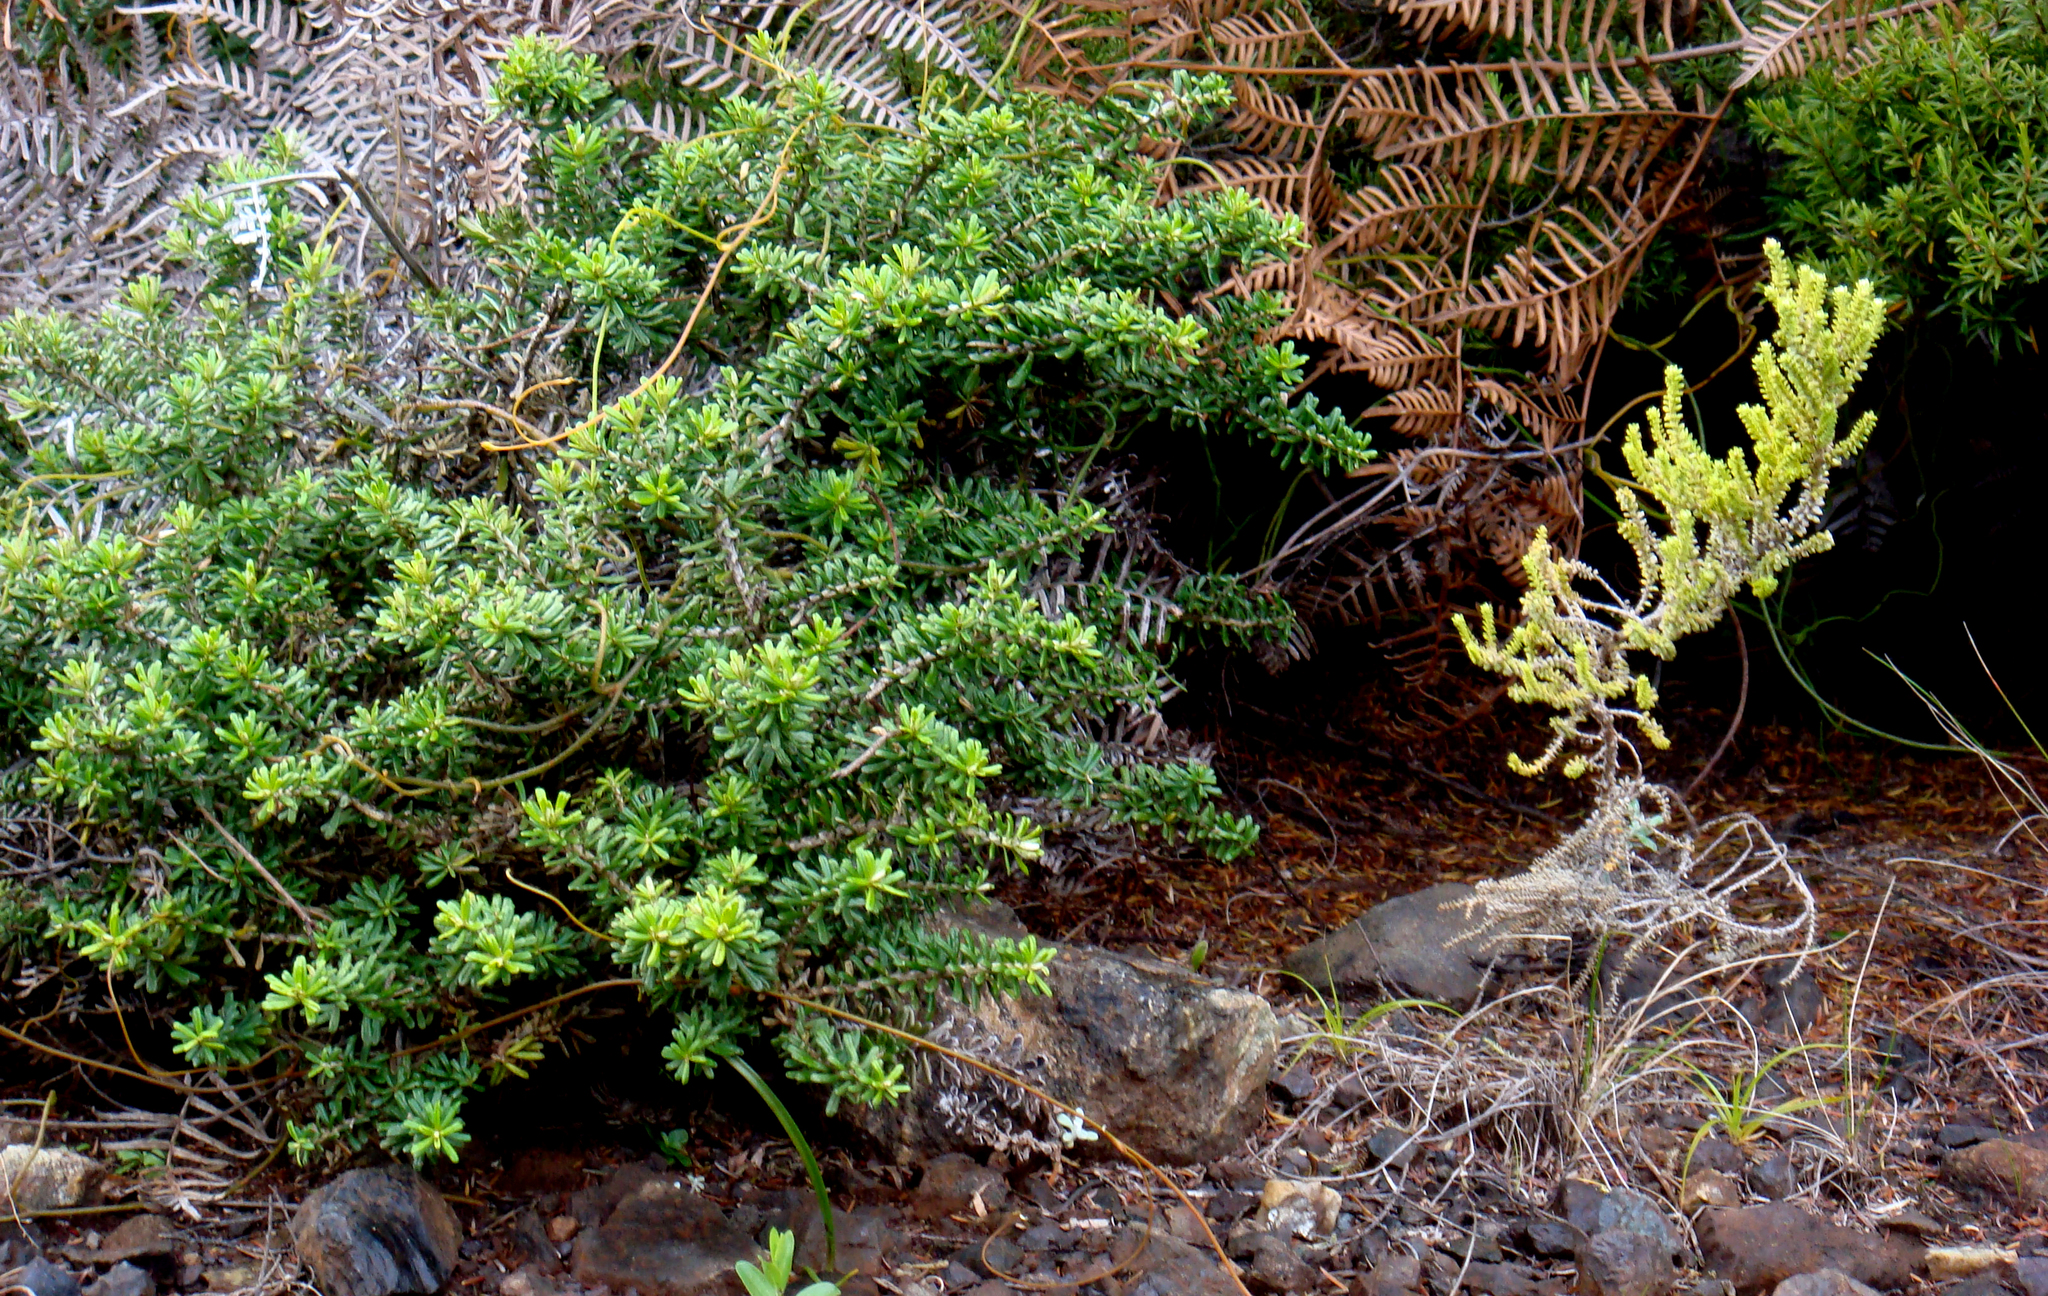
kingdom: Plantae
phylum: Tracheophyta
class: Magnoliopsida
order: Asterales
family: Asteraceae
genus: Ozothamnus
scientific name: Ozothamnus leptophyllus
